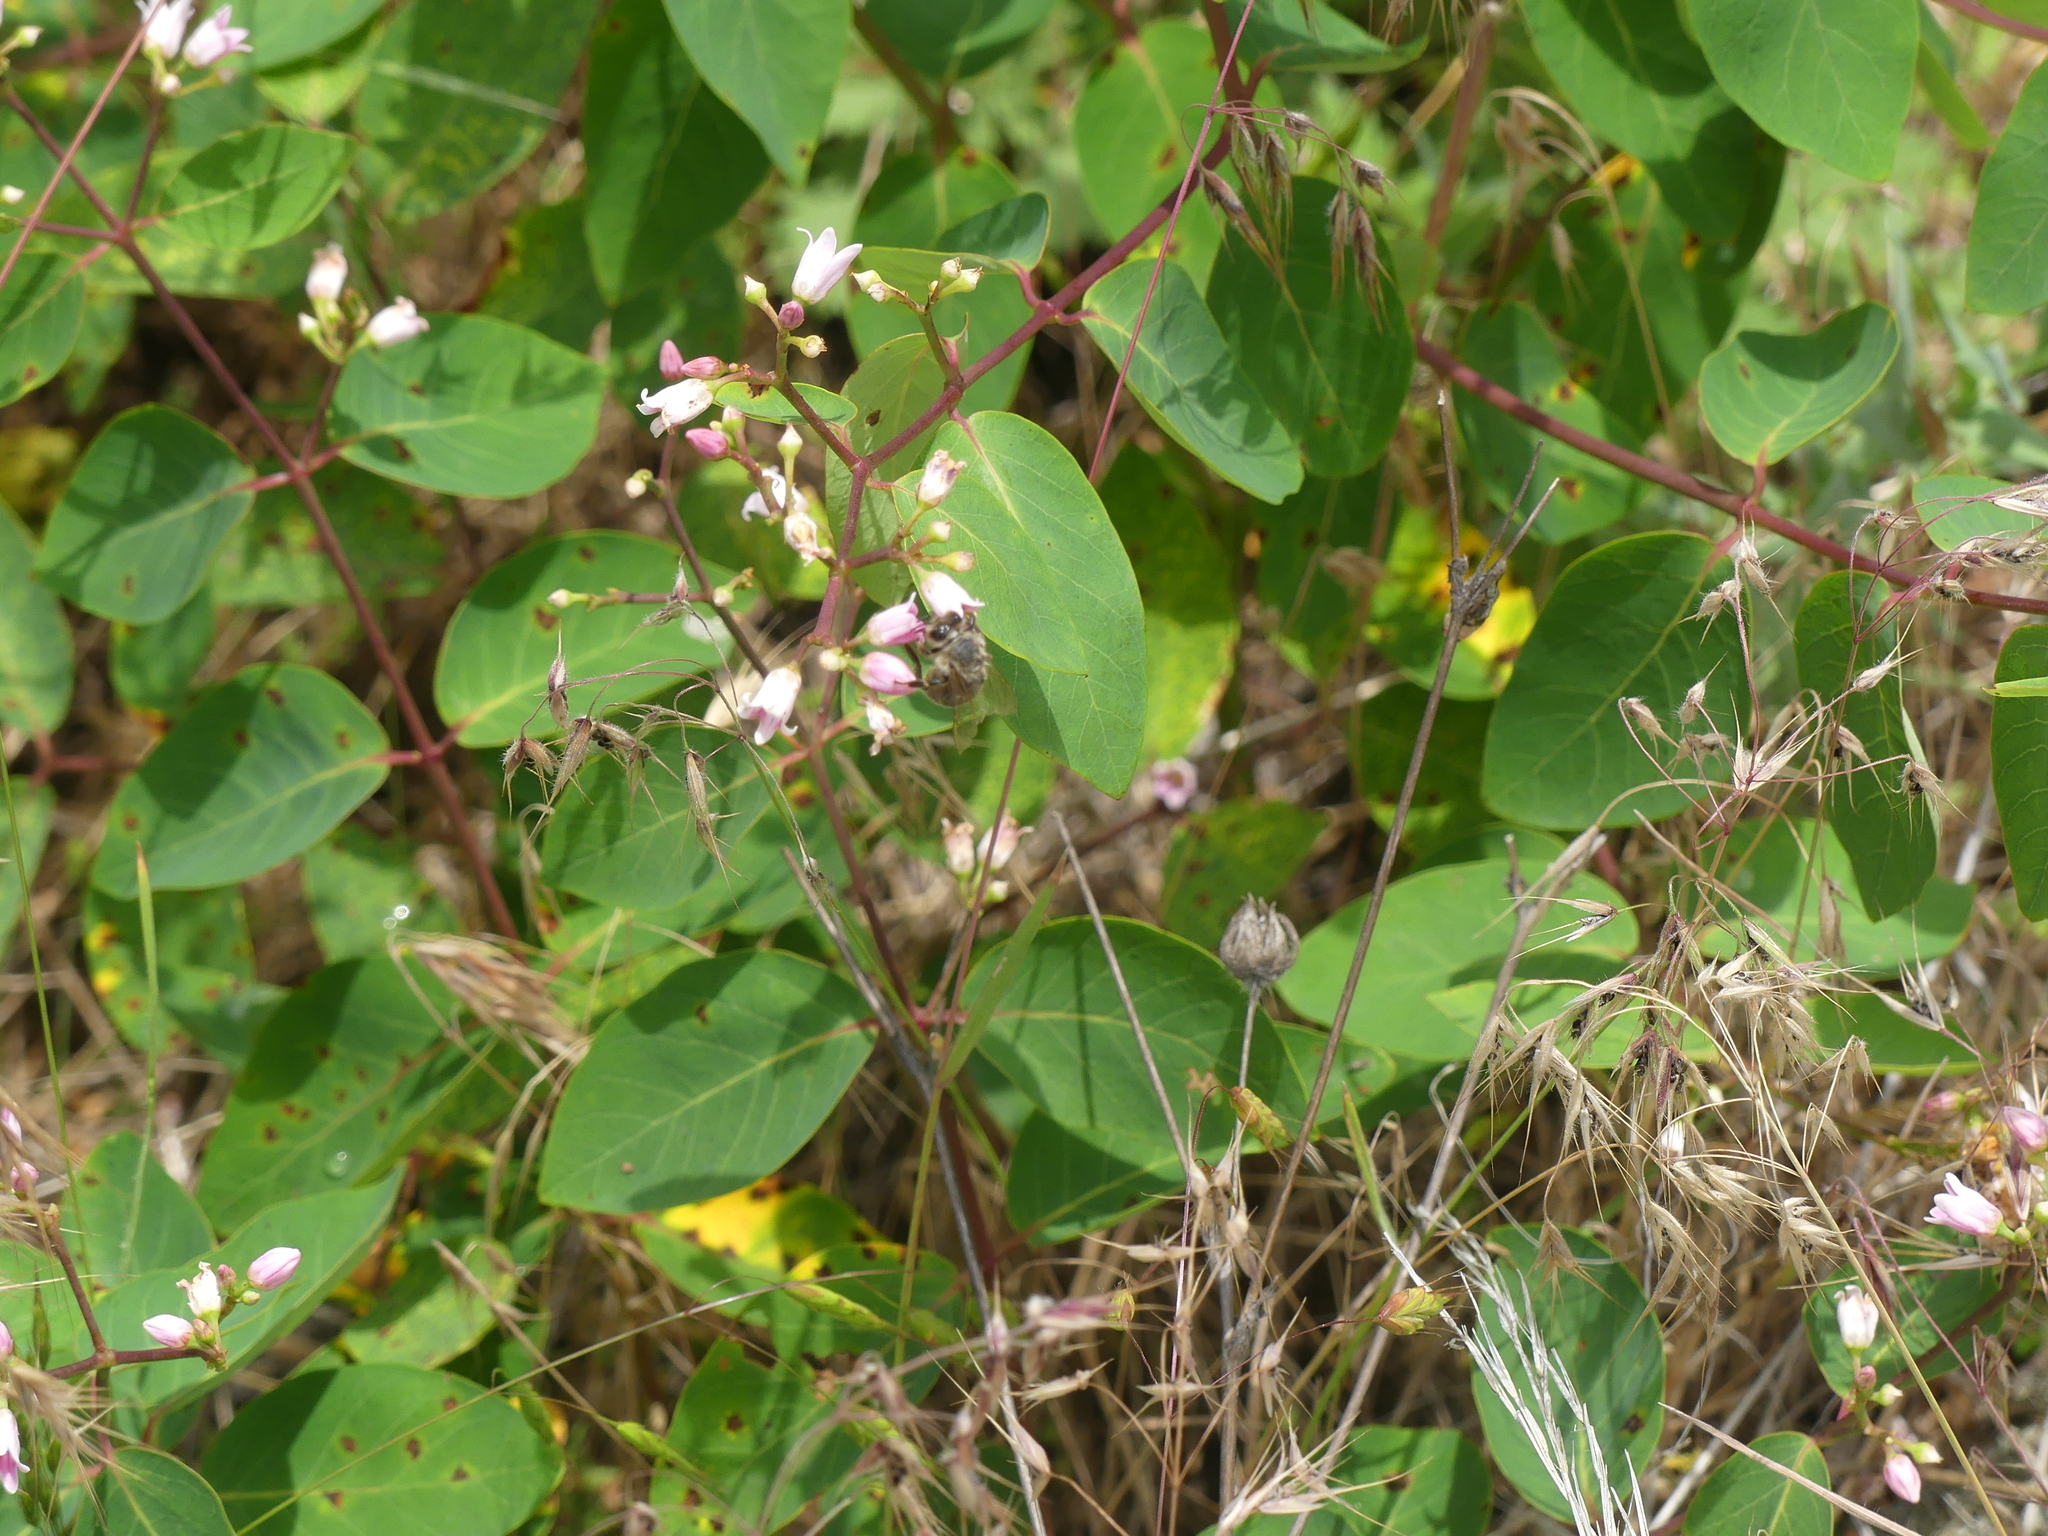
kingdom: Animalia
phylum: Arthropoda
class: Insecta
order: Hymenoptera
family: Apidae
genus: Apis
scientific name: Apis mellifera
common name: Honey bee
